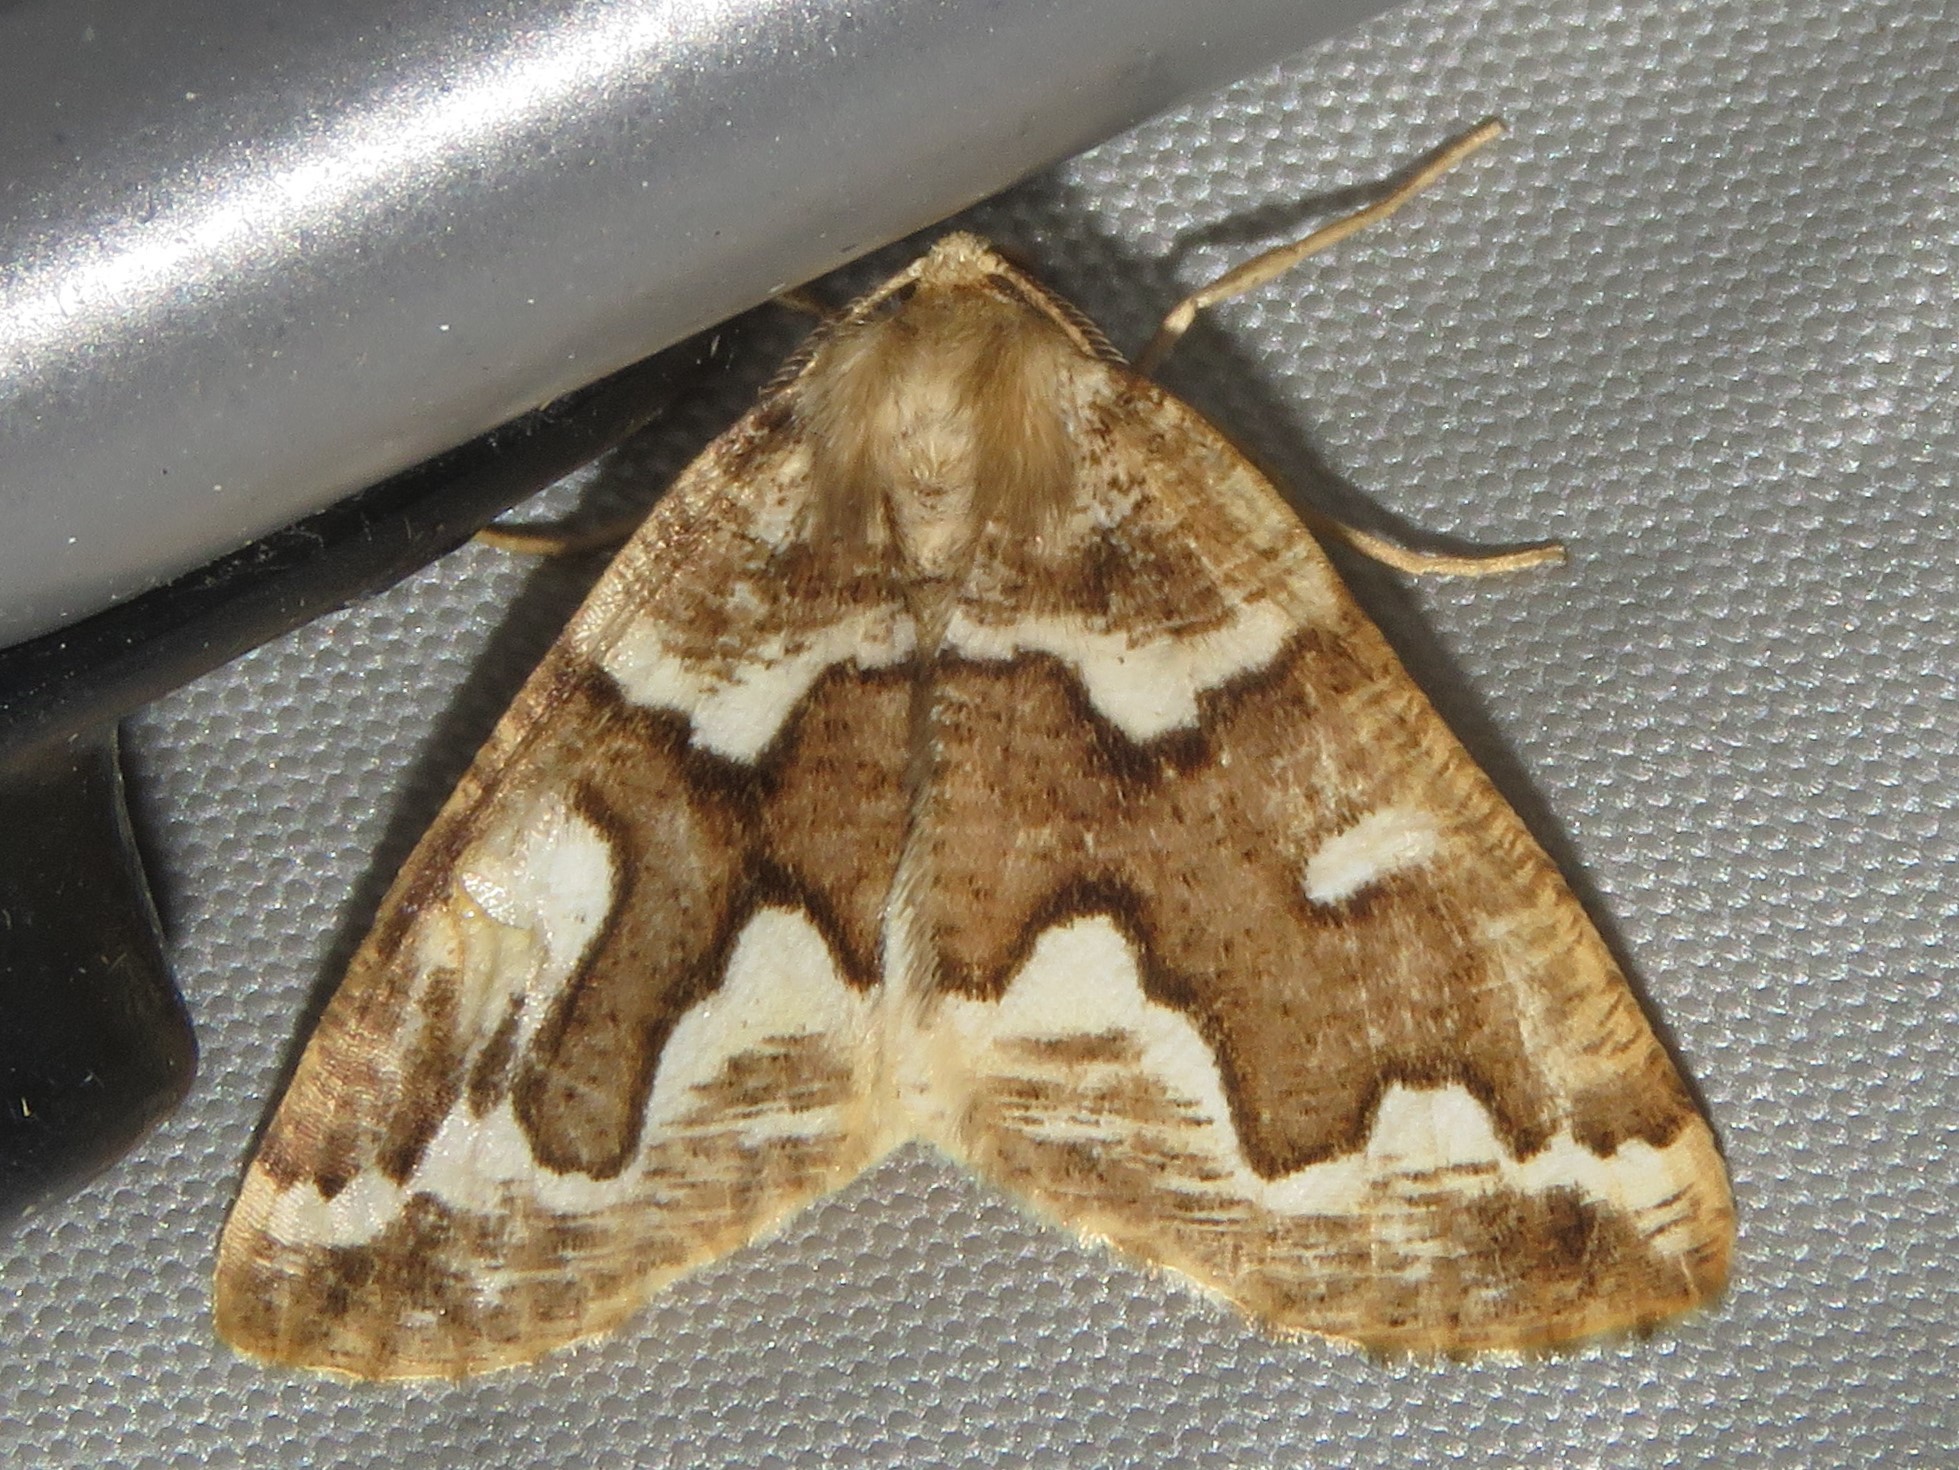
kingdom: Animalia
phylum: Arthropoda
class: Insecta
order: Lepidoptera
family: Geometridae
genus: Caripeta
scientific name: Caripeta divisata
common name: Gray spruce looper
